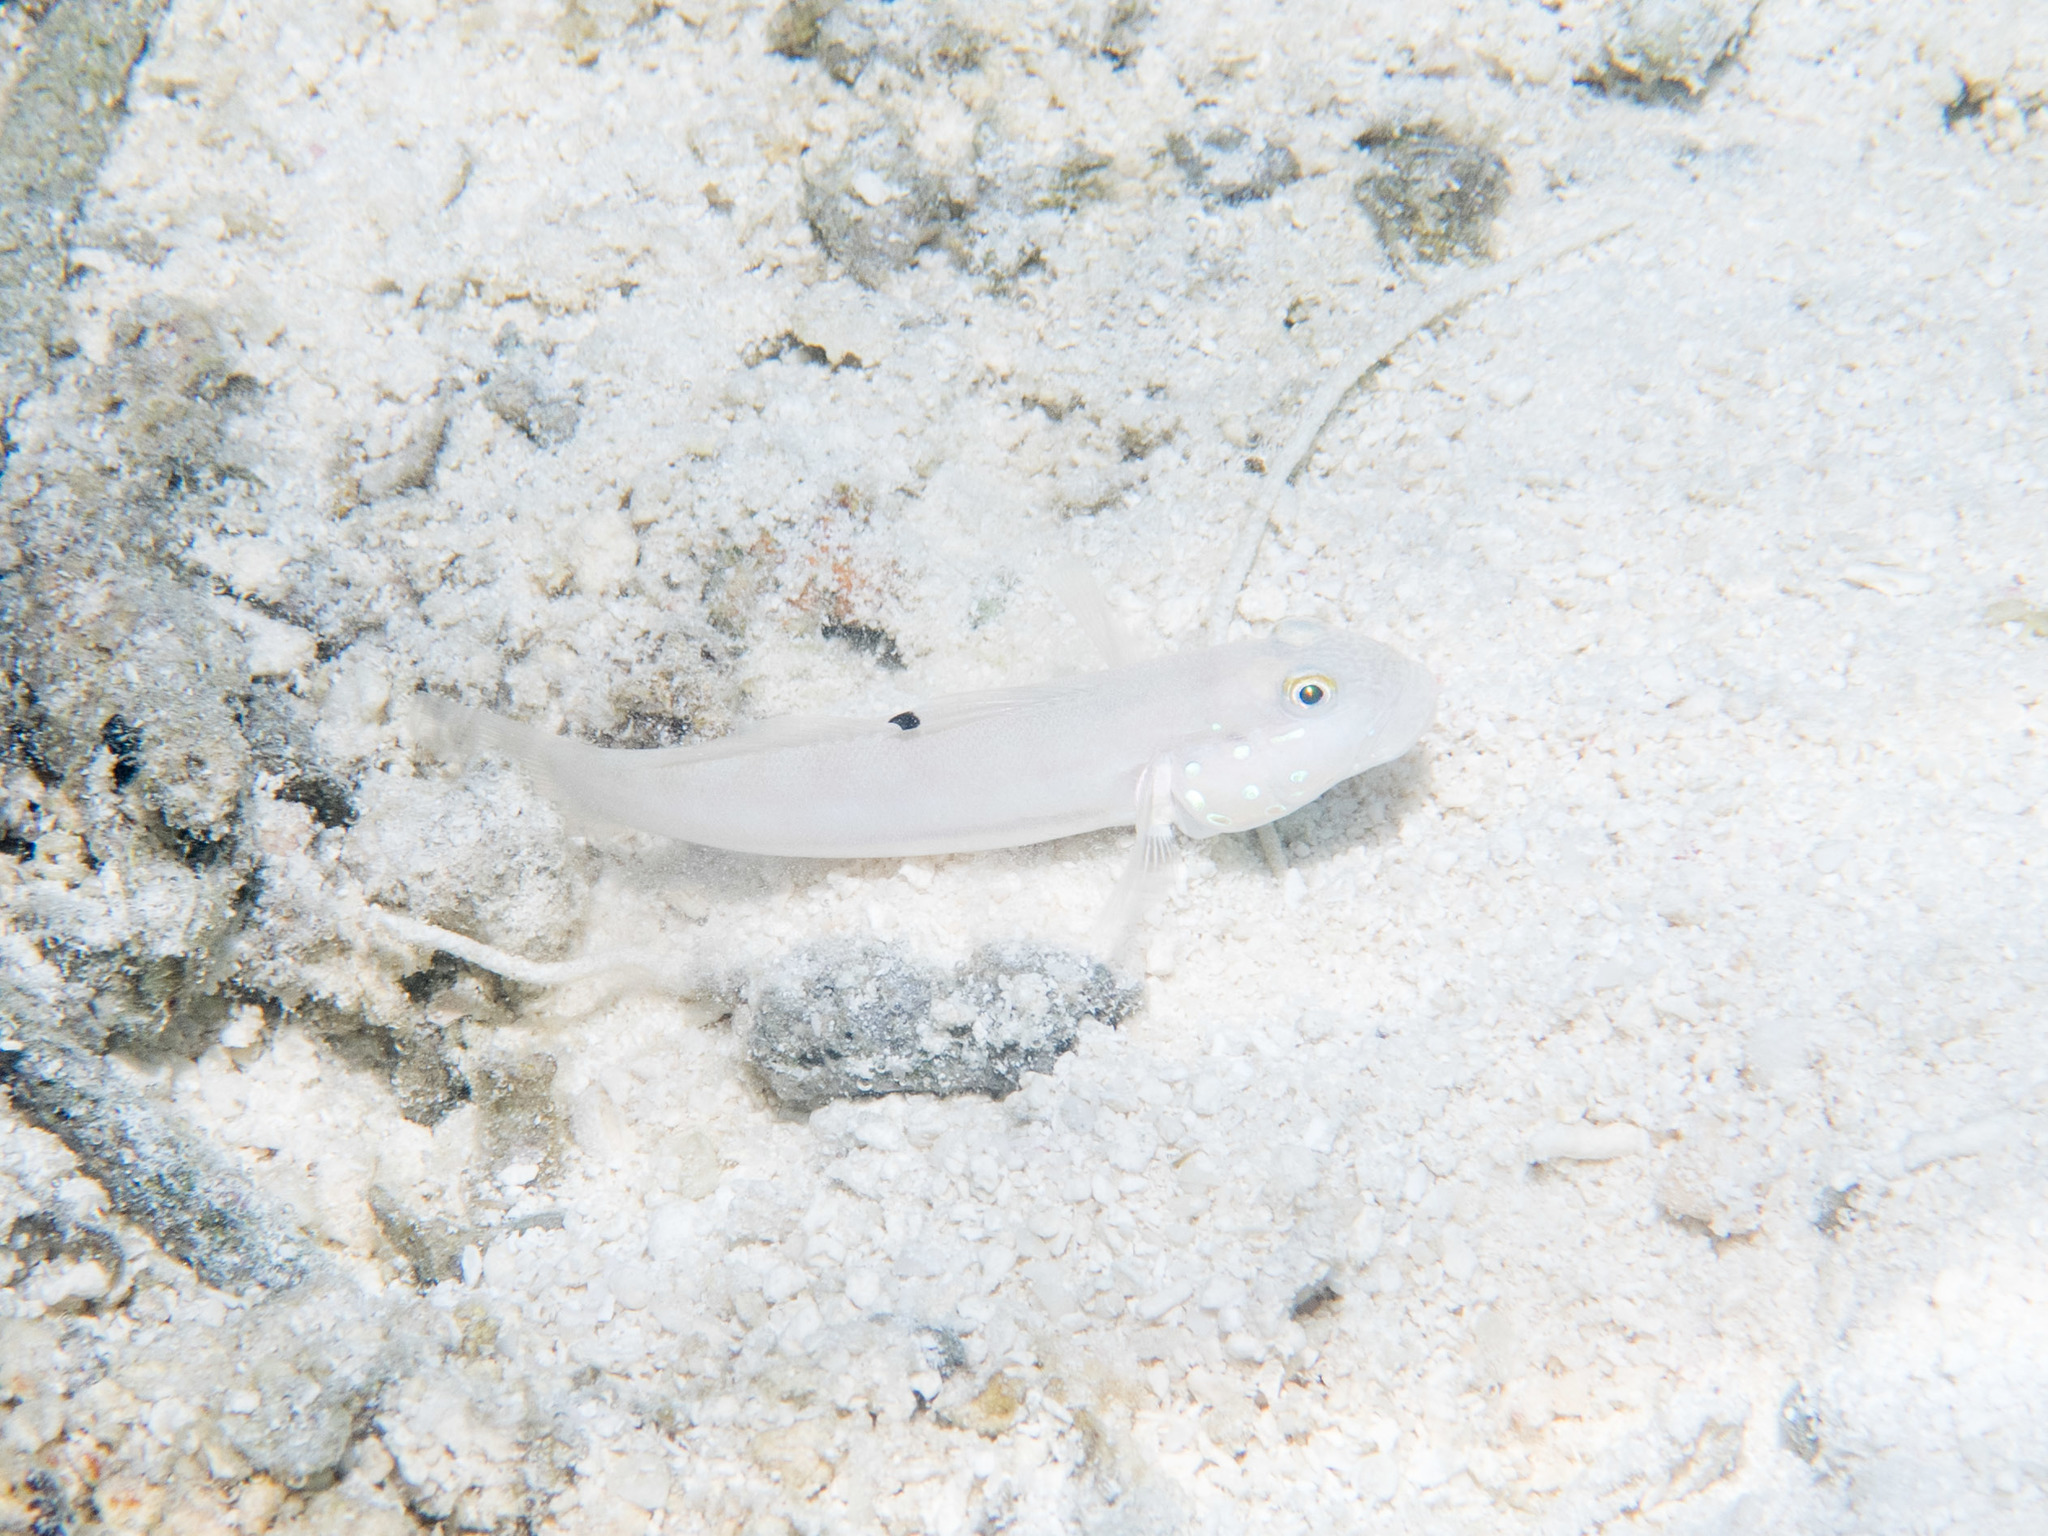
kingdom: Animalia
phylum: Chordata
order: Perciformes
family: Gobiidae
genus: Valenciennea
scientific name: Valenciennea sexguttata
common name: Sixspot goby
